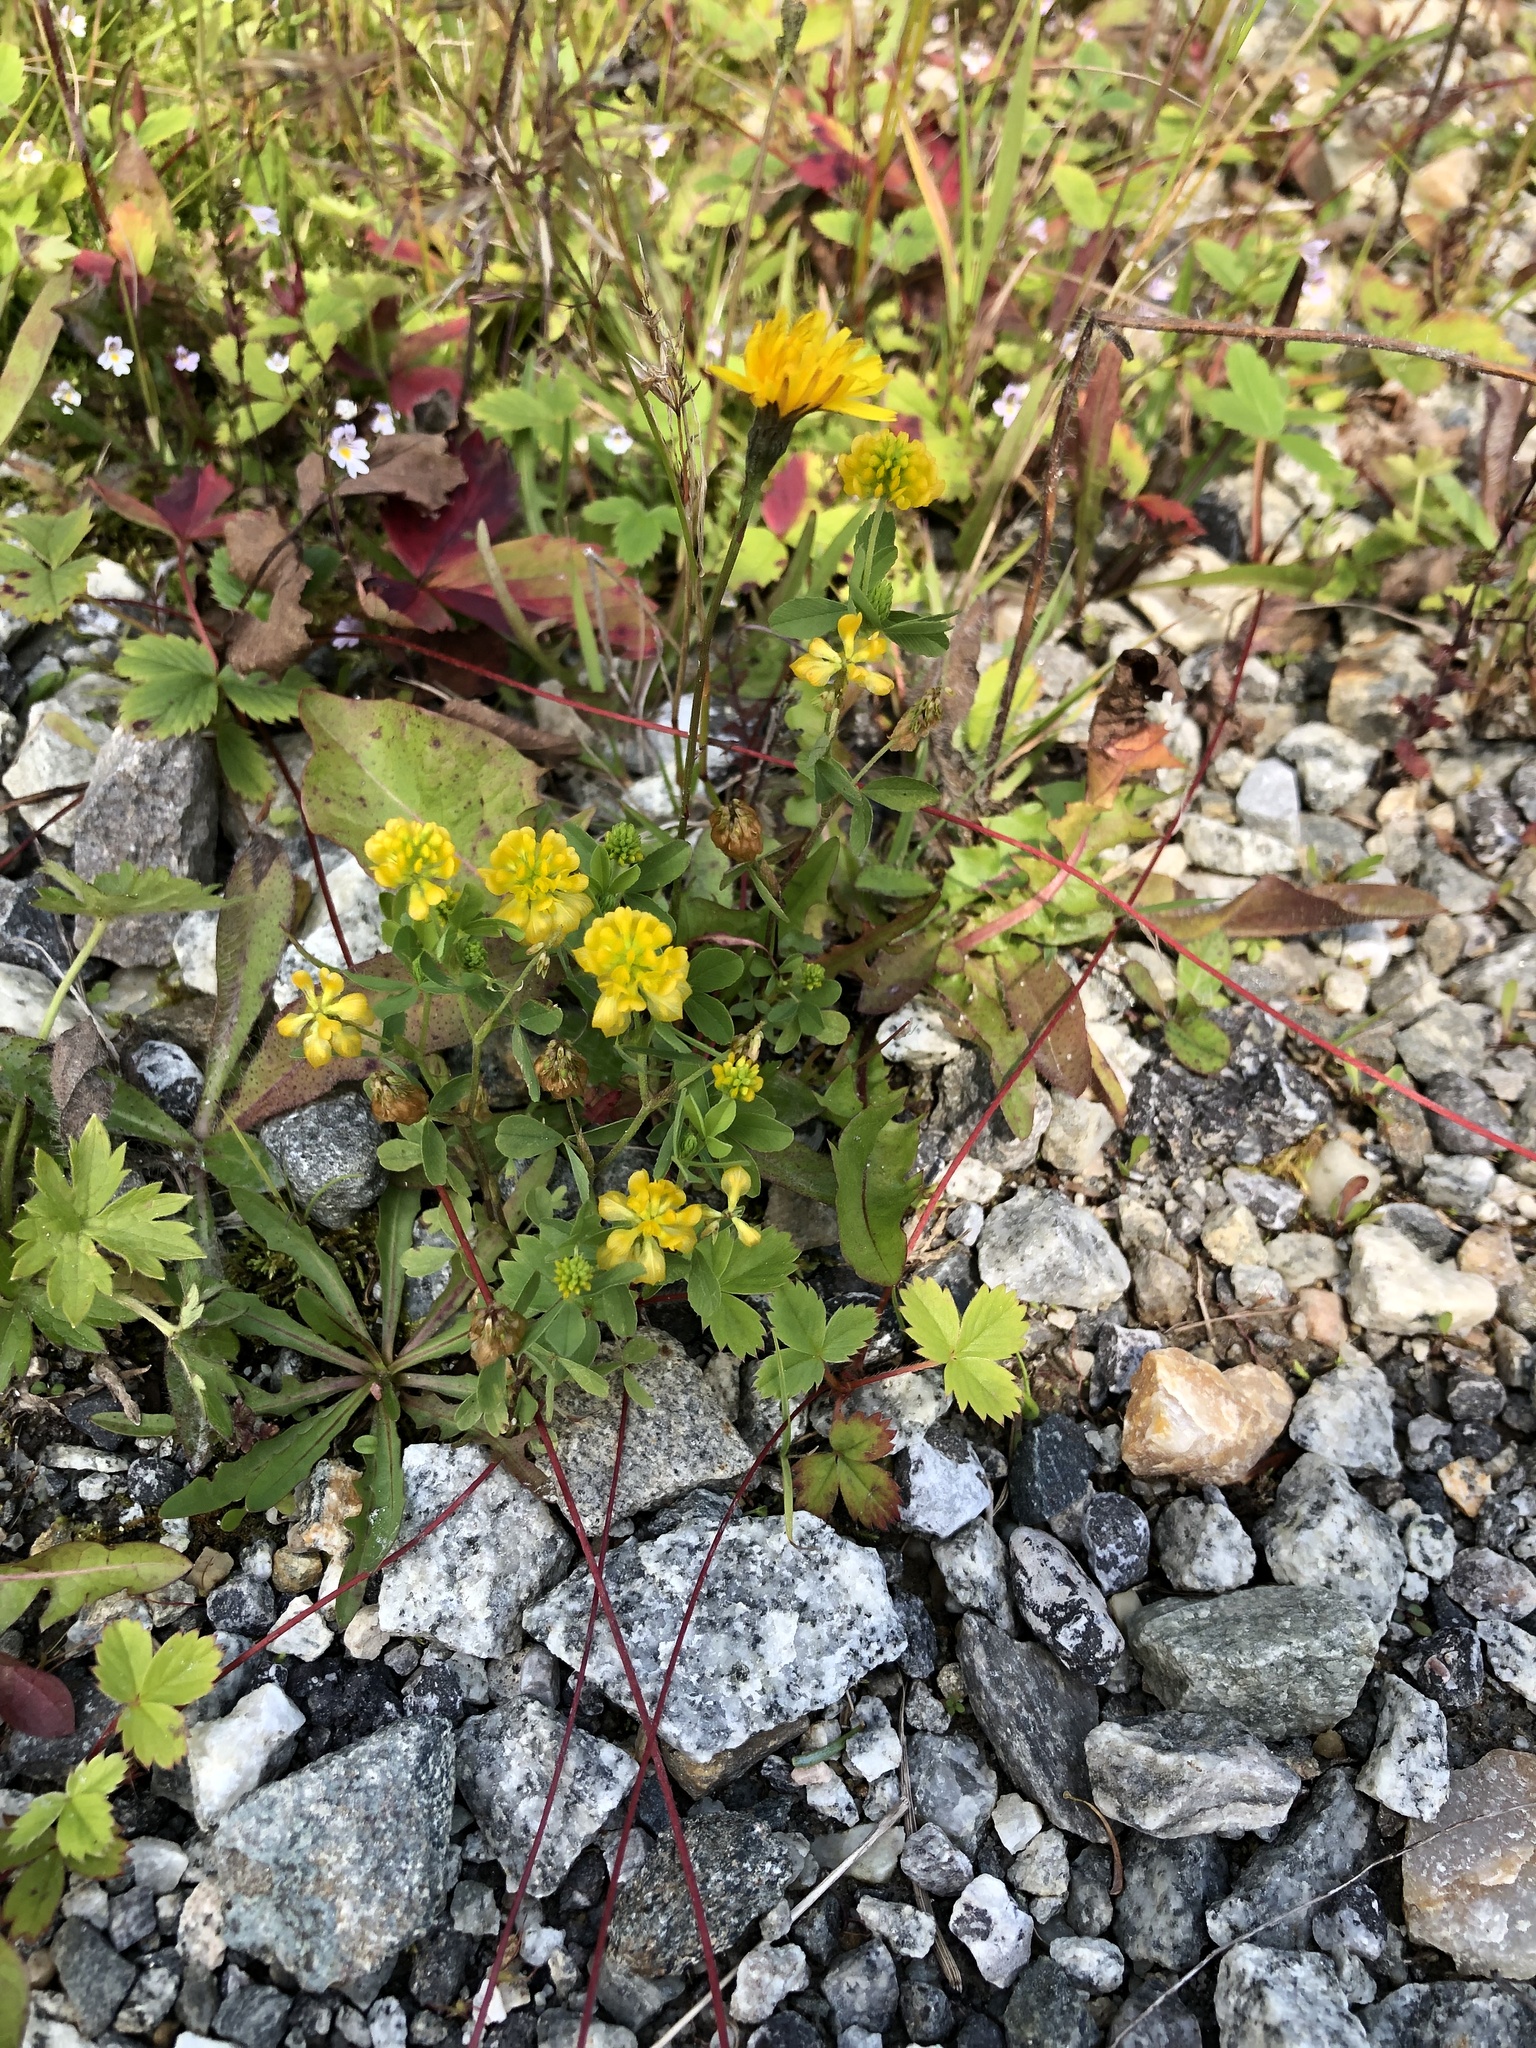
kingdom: Plantae
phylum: Tracheophyta
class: Magnoliopsida
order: Fabales
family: Fabaceae
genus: Trifolium
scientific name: Trifolium aureum
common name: Golden clover
